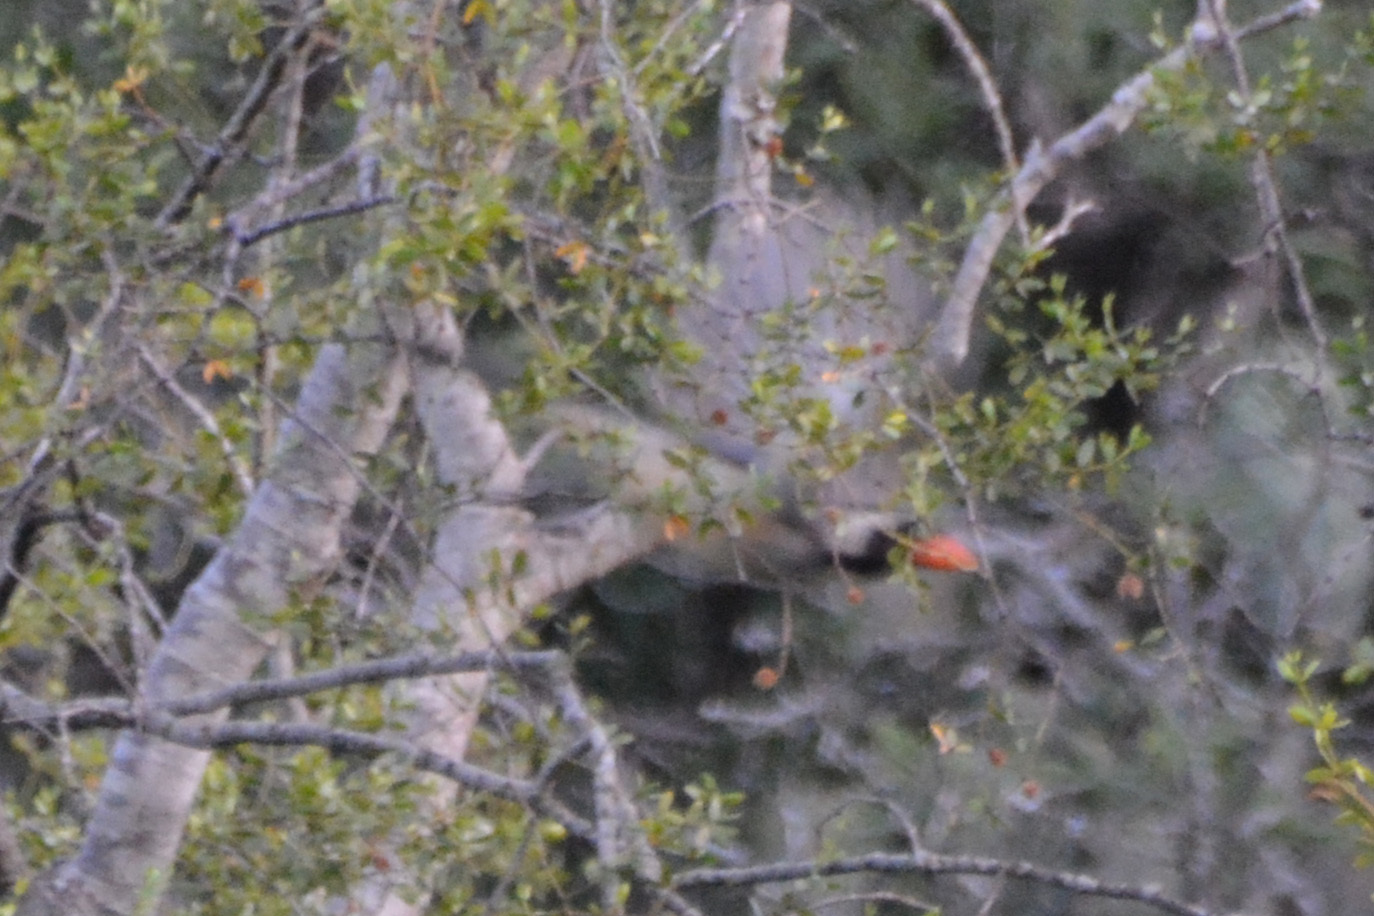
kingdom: Animalia
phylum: Chordata
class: Aves
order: Passeriformes
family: Thraupidae
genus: Saltator
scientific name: Saltator aurantiirostris
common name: Golden-billed saltator
